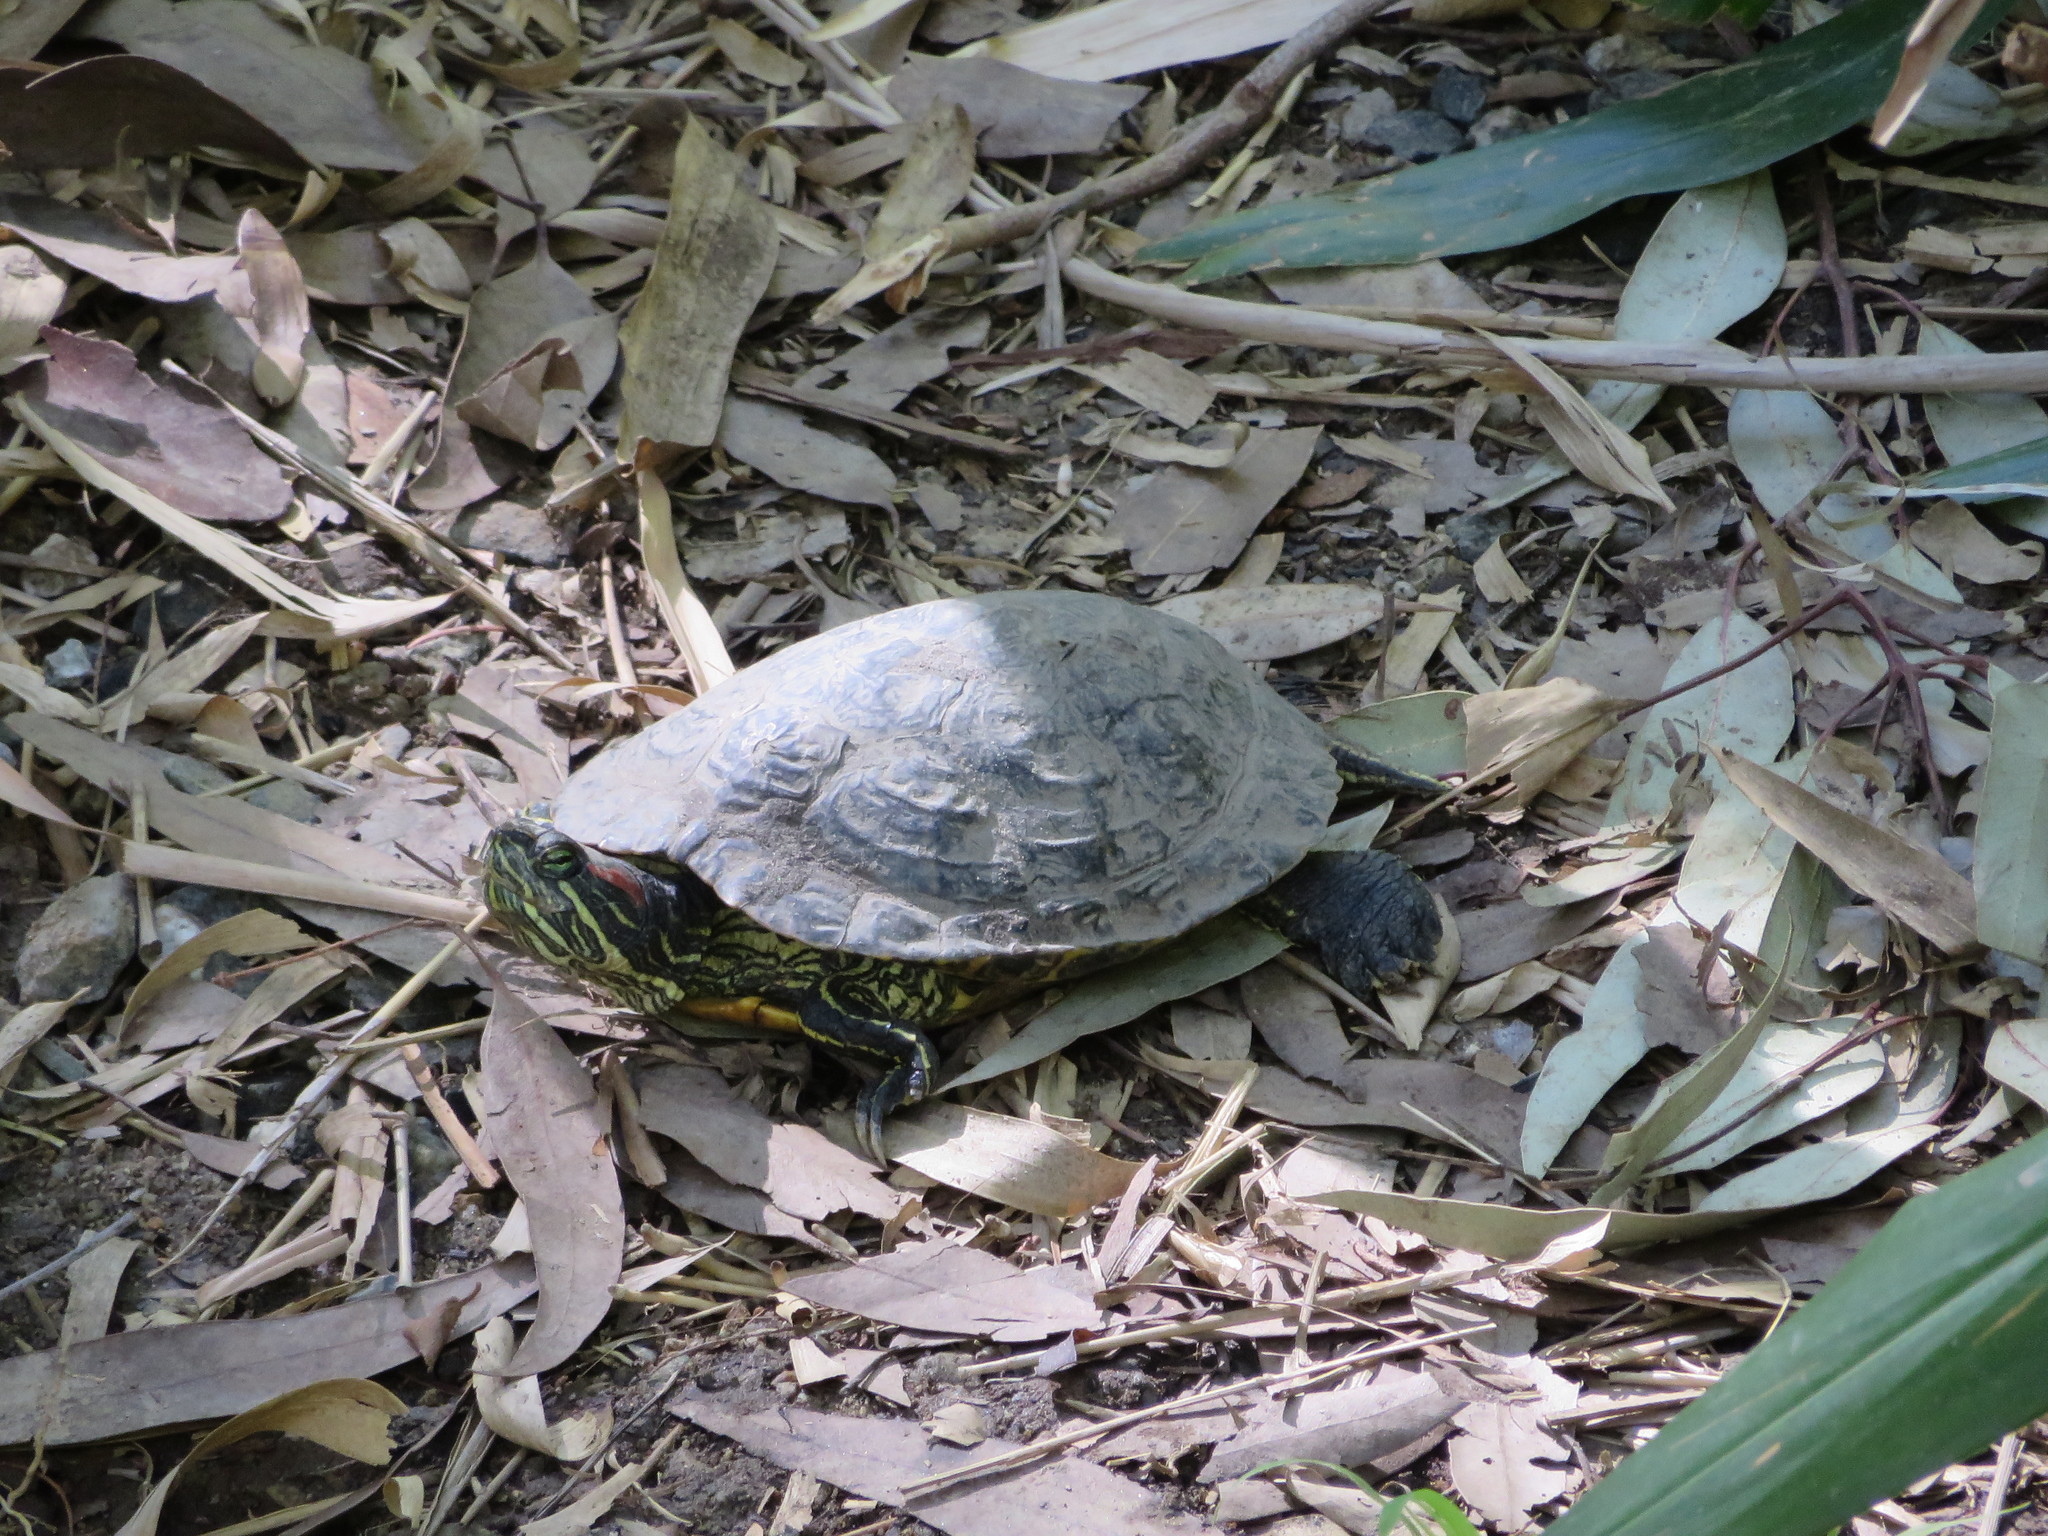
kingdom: Animalia
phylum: Chordata
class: Testudines
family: Emydidae
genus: Trachemys
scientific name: Trachemys scripta
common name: Slider
